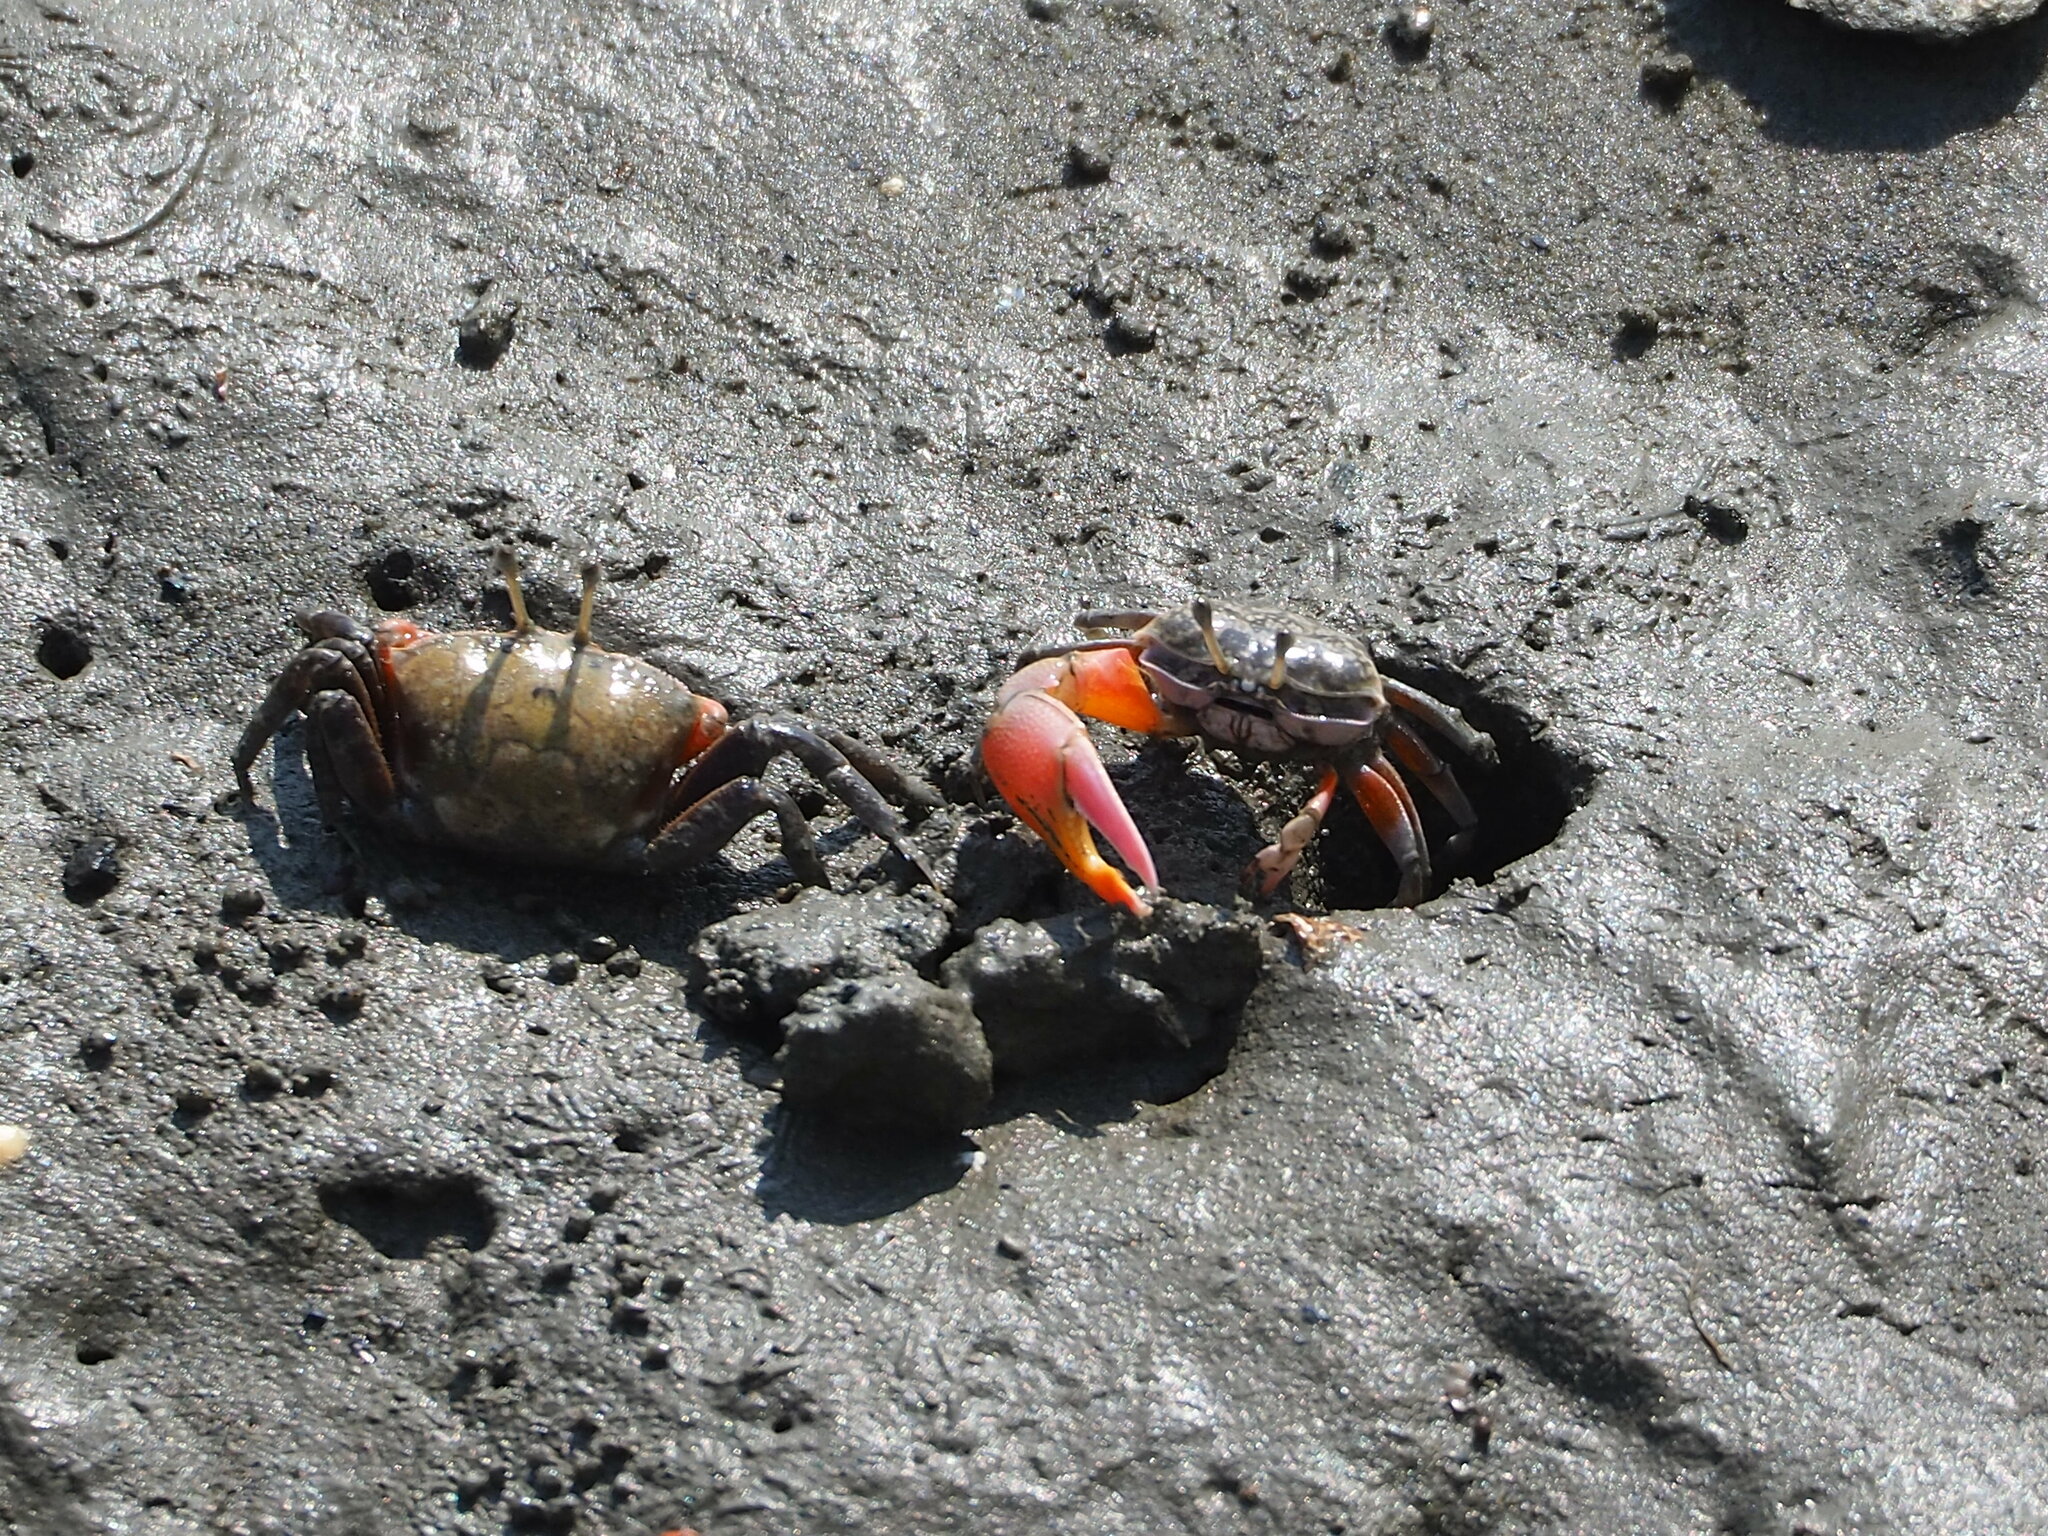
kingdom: Animalia
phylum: Arthropoda
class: Malacostraca
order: Decapoda
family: Ocypodidae
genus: Gelasimus
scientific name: Gelasimus borealis
